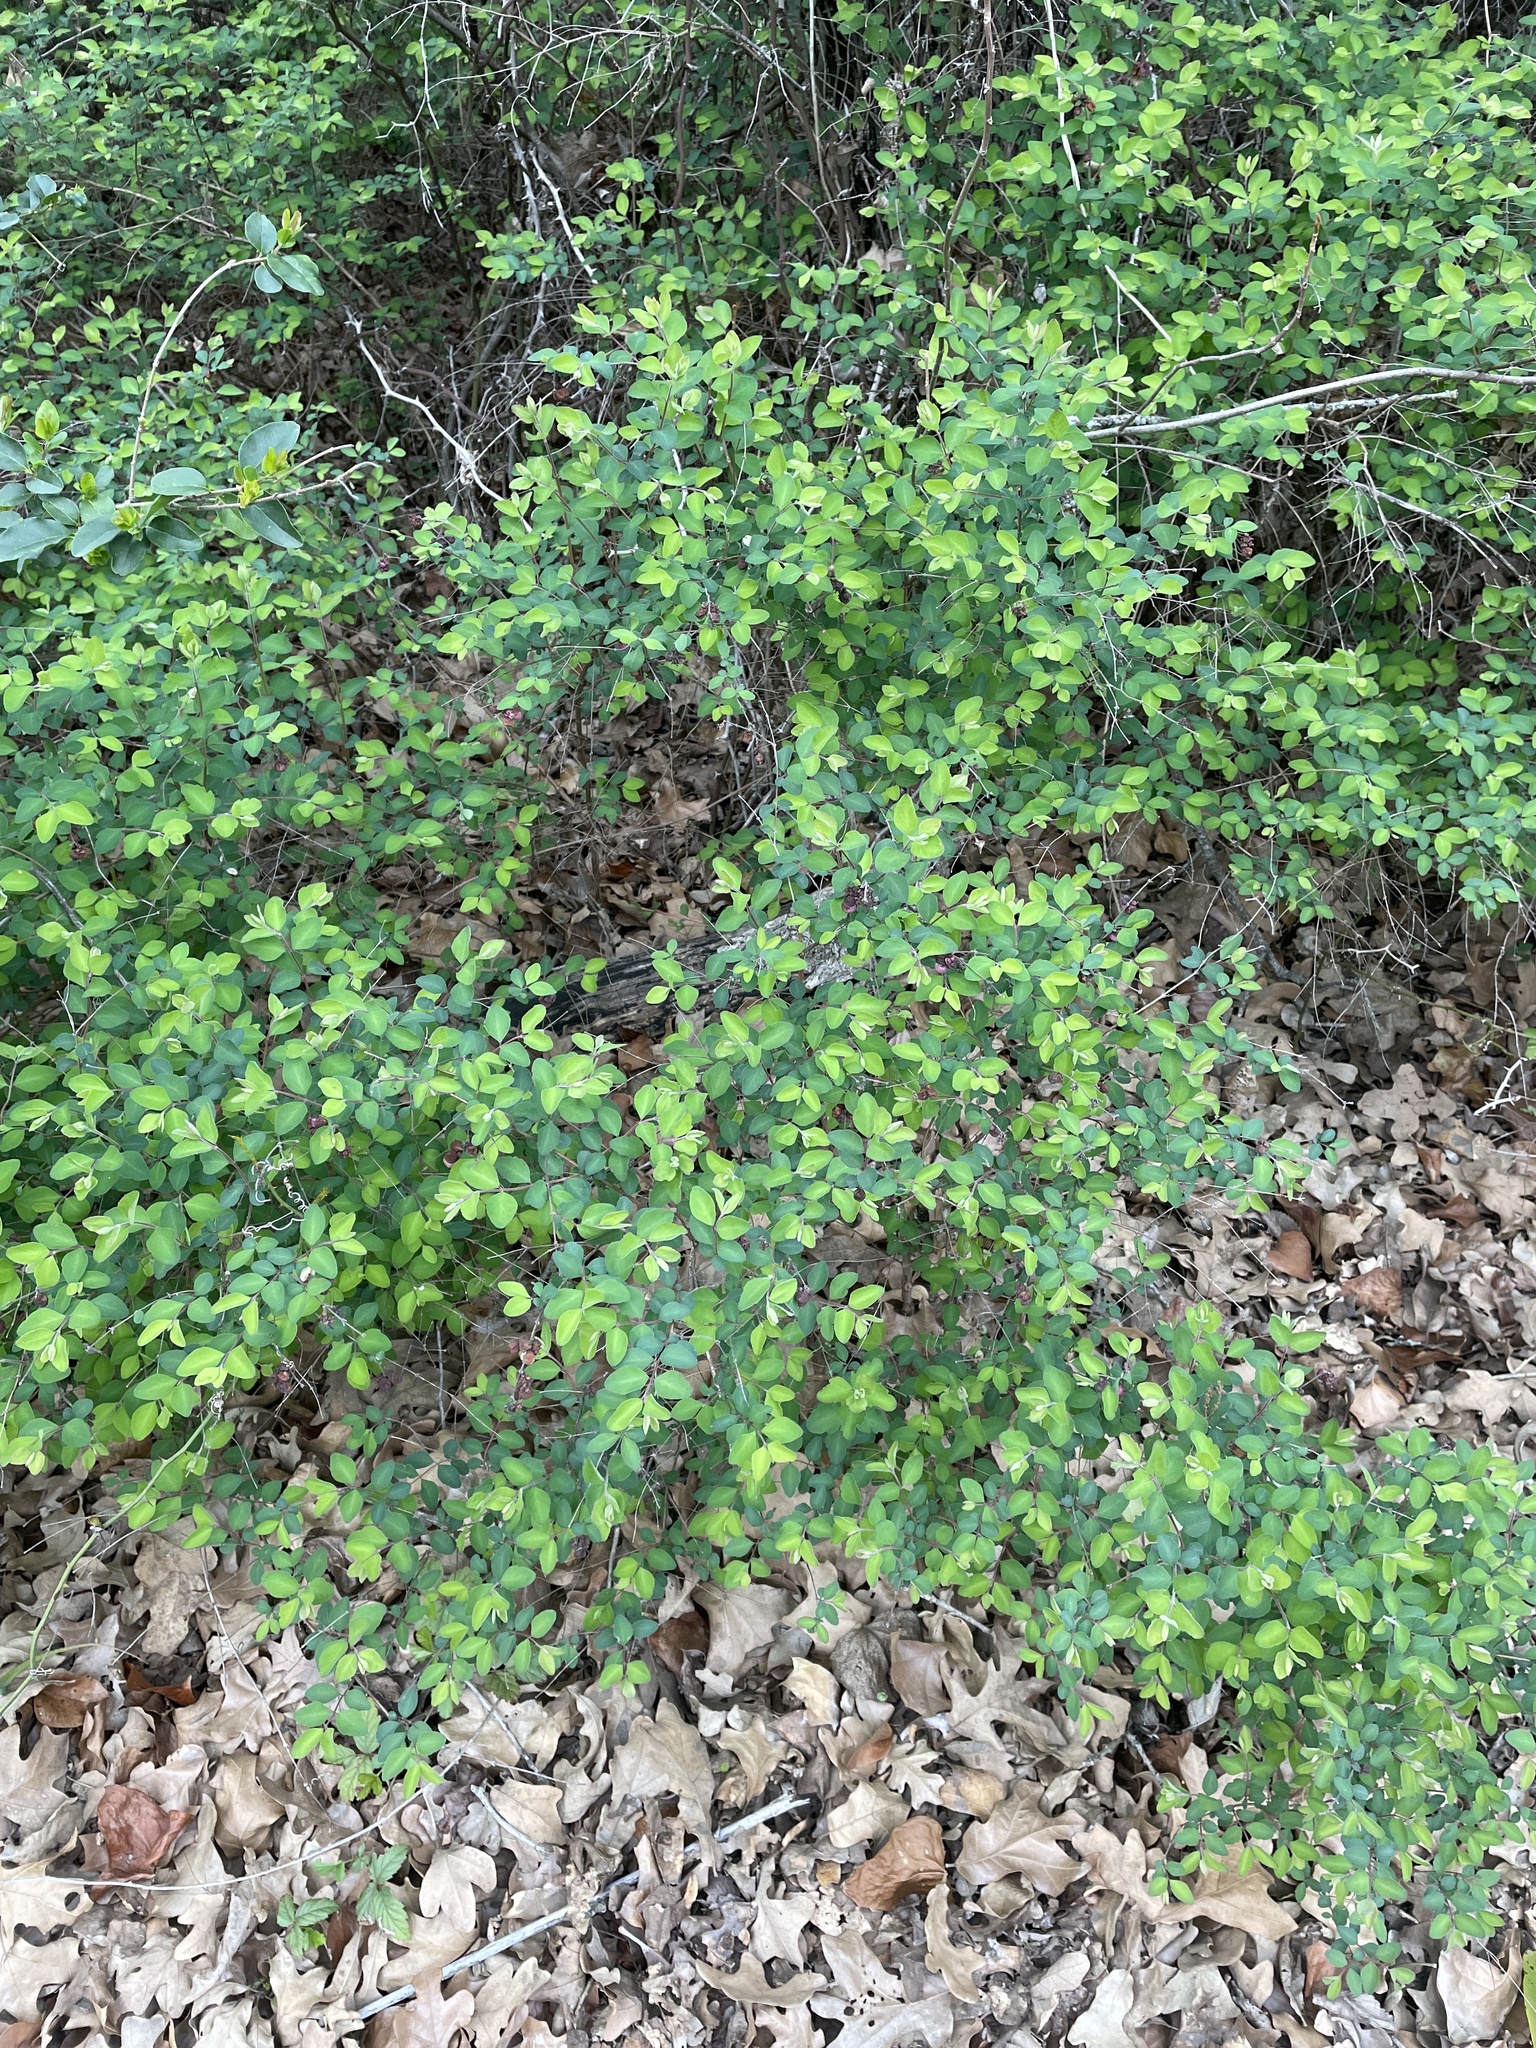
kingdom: Plantae
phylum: Tracheophyta
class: Magnoliopsida
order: Dipsacales
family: Caprifoliaceae
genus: Symphoricarpos
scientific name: Symphoricarpos orbiculatus
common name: Coralberry
